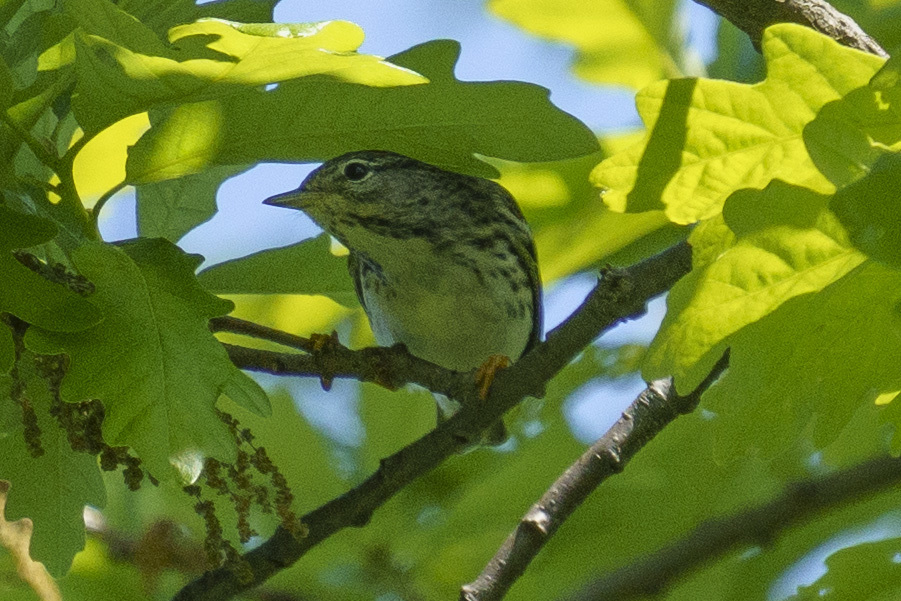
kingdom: Animalia
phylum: Chordata
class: Aves
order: Passeriformes
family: Parulidae
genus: Setophaga
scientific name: Setophaga striata
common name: Blackpoll warbler
